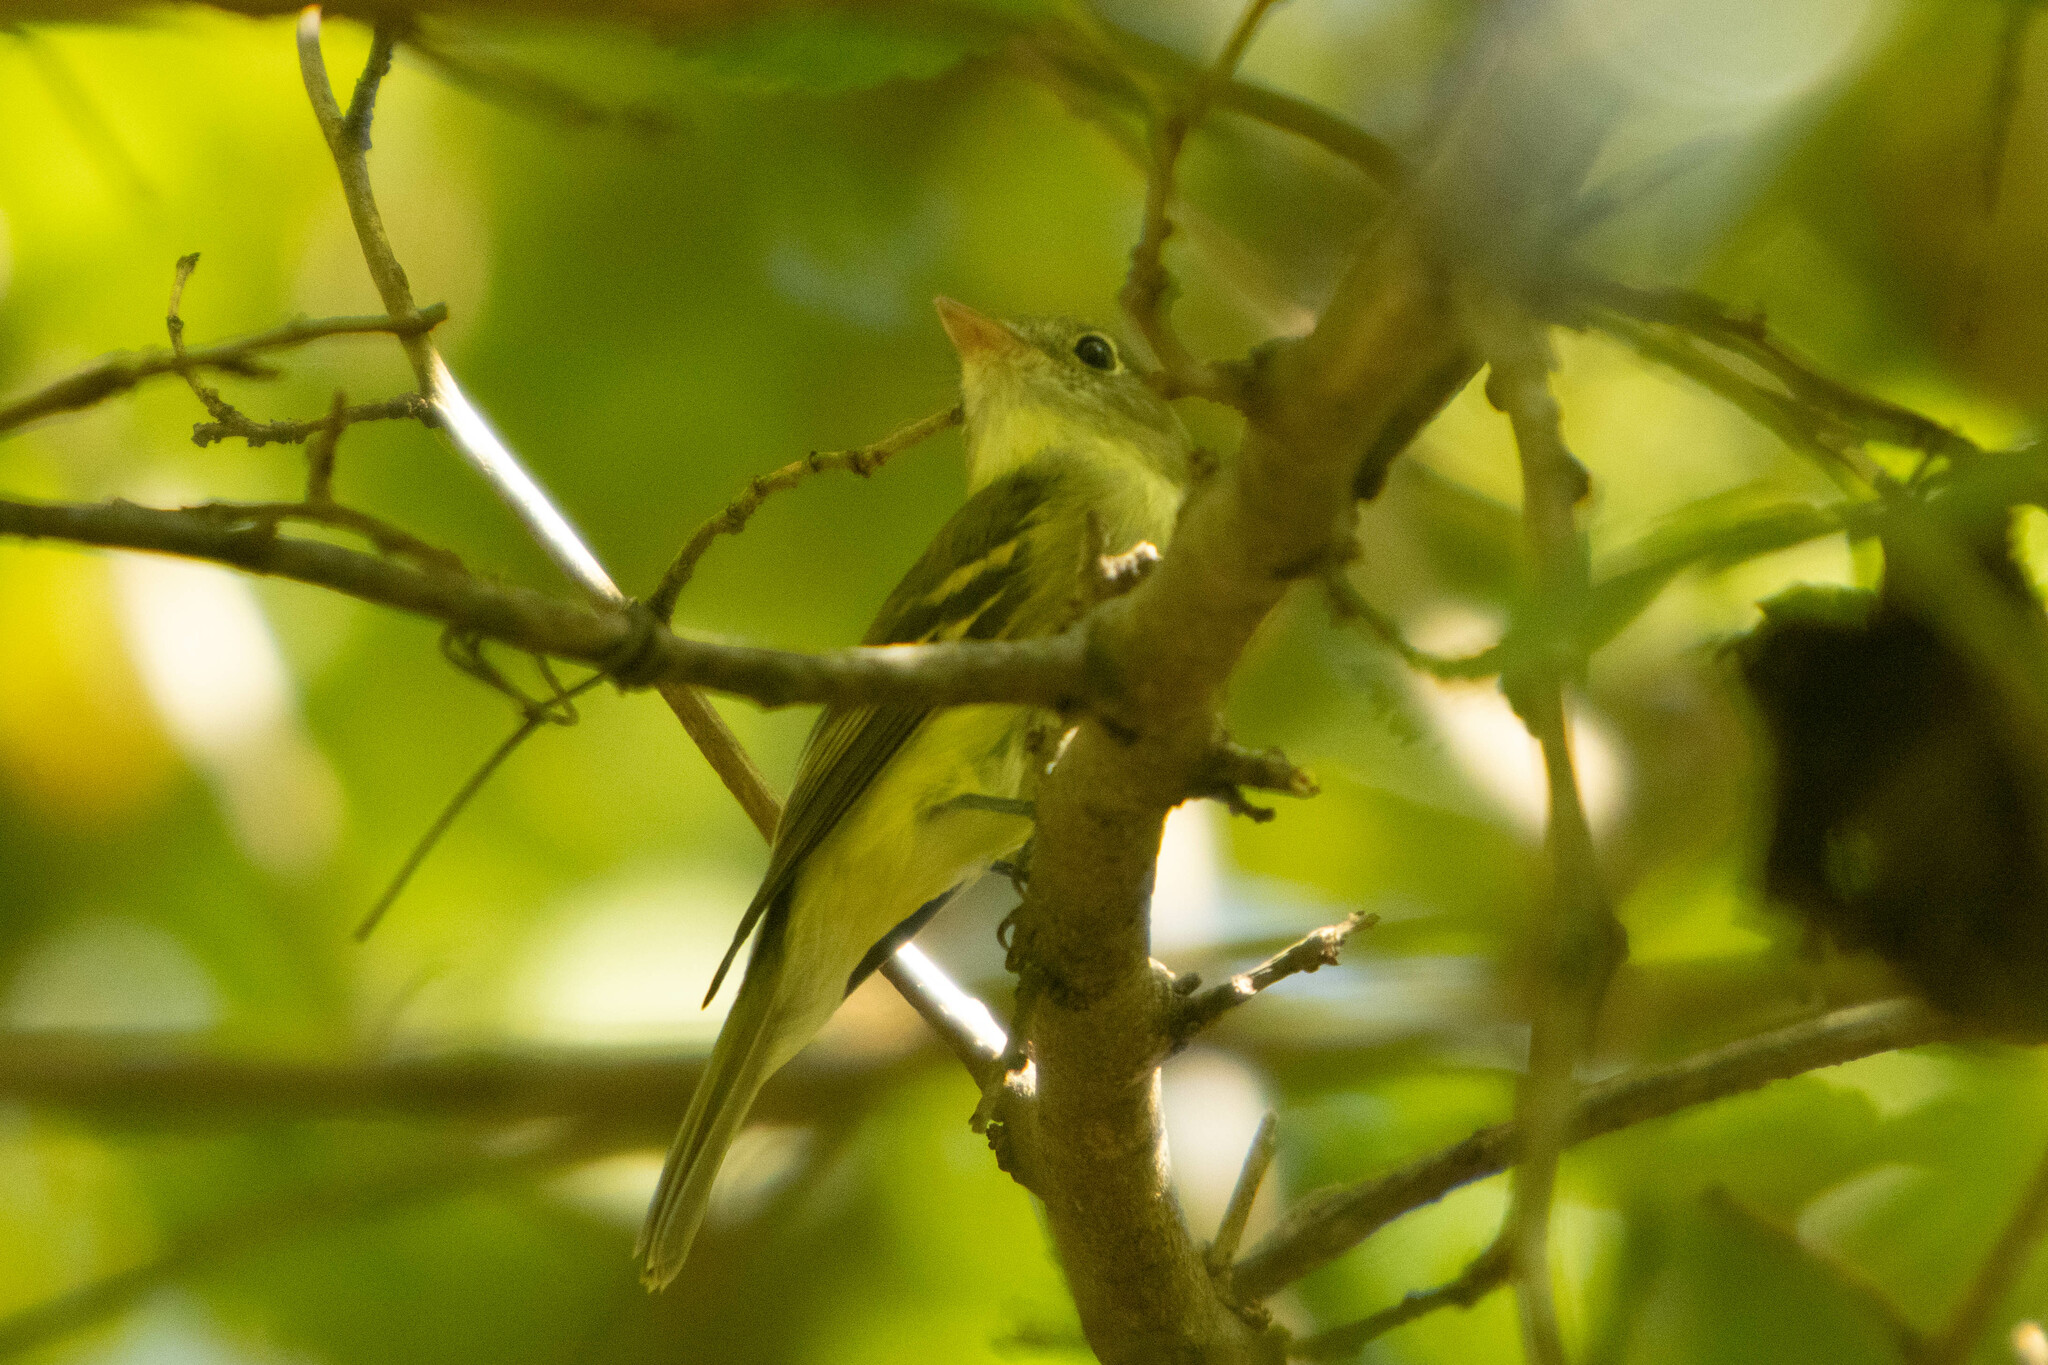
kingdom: Animalia
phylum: Chordata
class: Aves
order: Passeriformes
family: Tyrannidae
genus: Empidonax
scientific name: Empidonax virescens
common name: Acadian flycatcher
